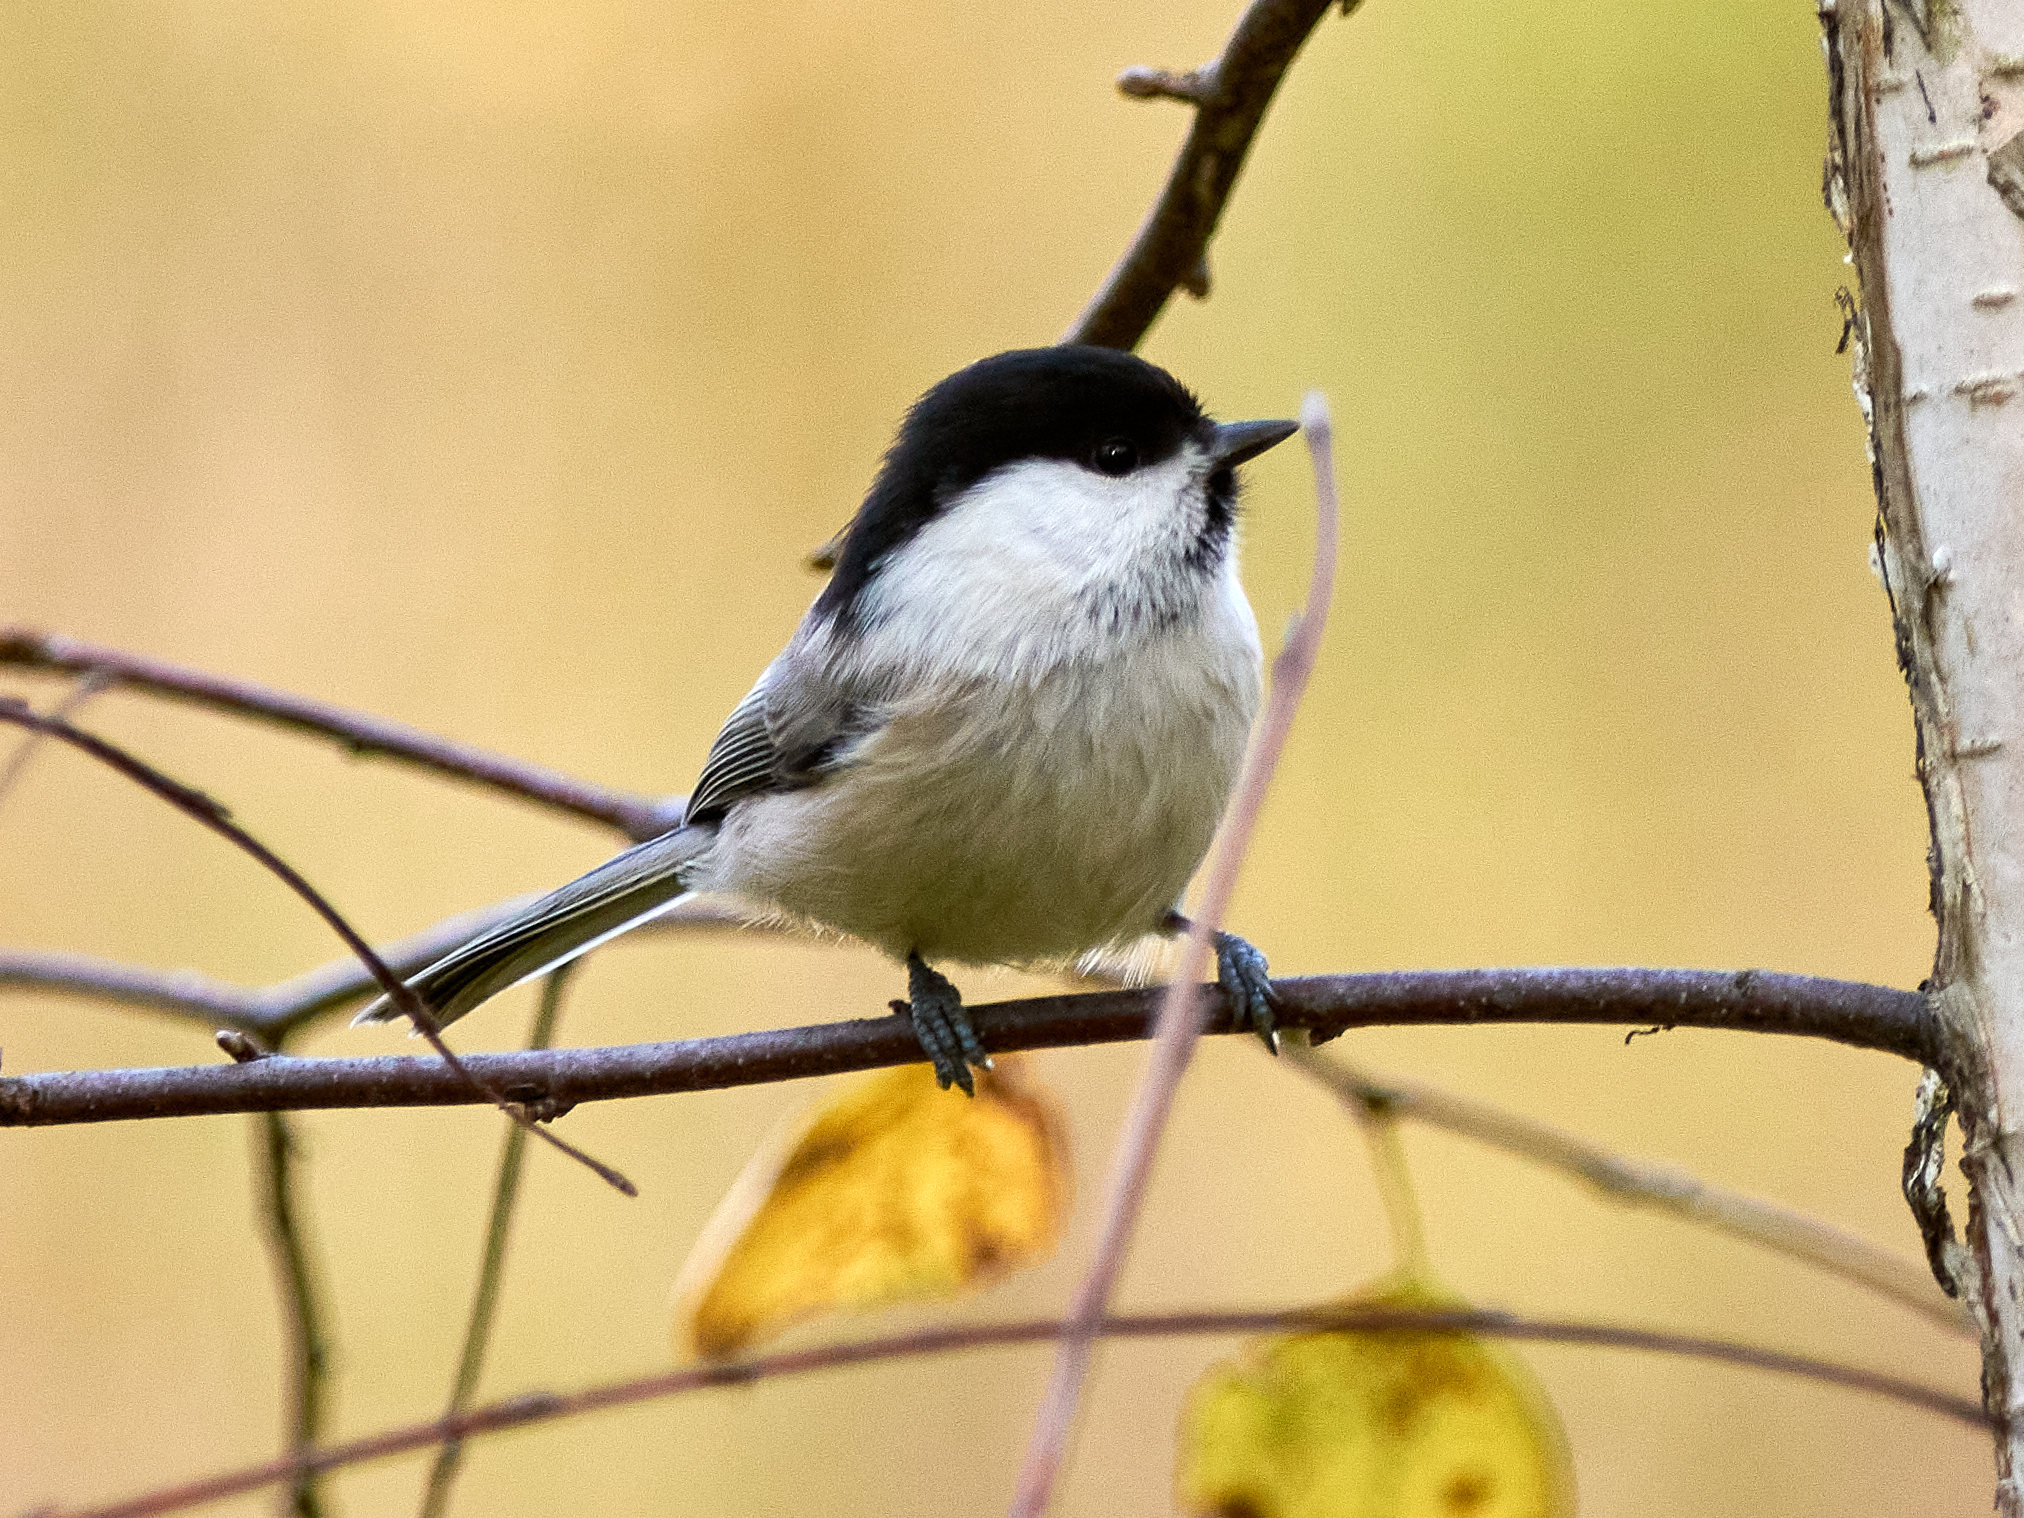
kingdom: Animalia
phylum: Chordata
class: Aves
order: Passeriformes
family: Paridae
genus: Poecile
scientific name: Poecile montanus
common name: Willow tit
